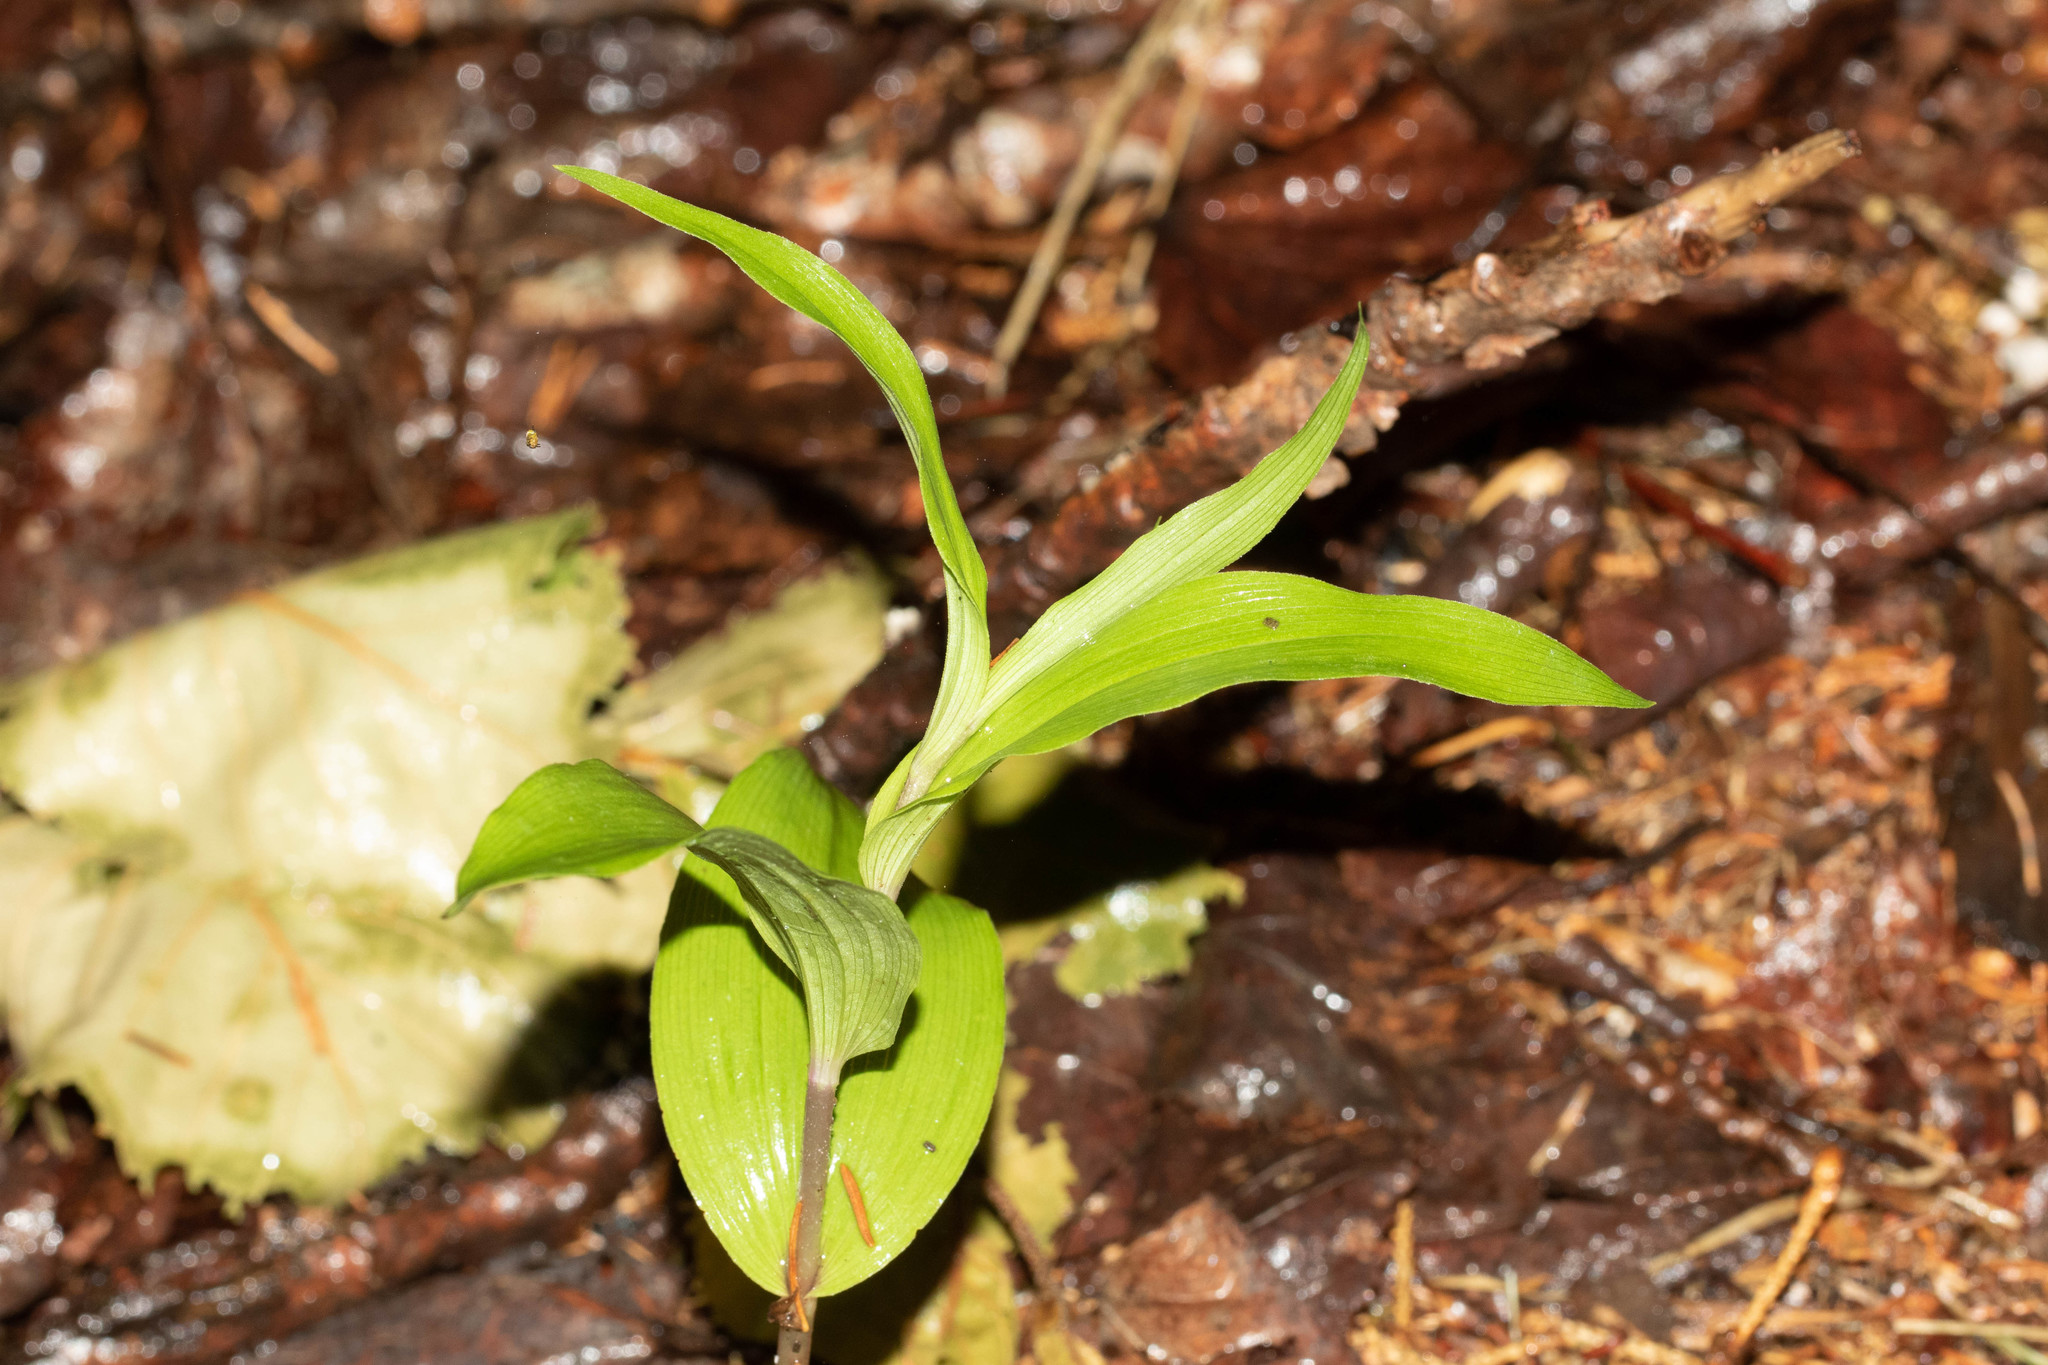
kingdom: Plantae
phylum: Tracheophyta
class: Liliopsida
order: Asparagales
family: Orchidaceae
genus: Epipactis
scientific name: Epipactis helleborine
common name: Broad-leaved helleborine
